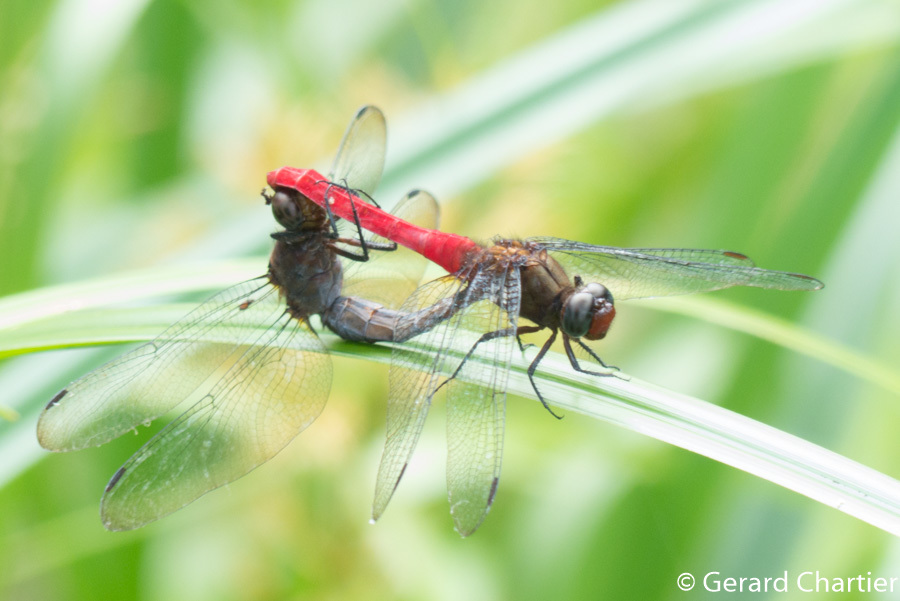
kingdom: Animalia
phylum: Arthropoda
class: Insecta
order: Odonata
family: Libellulidae
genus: Orthetrum
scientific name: Orthetrum chrysis
